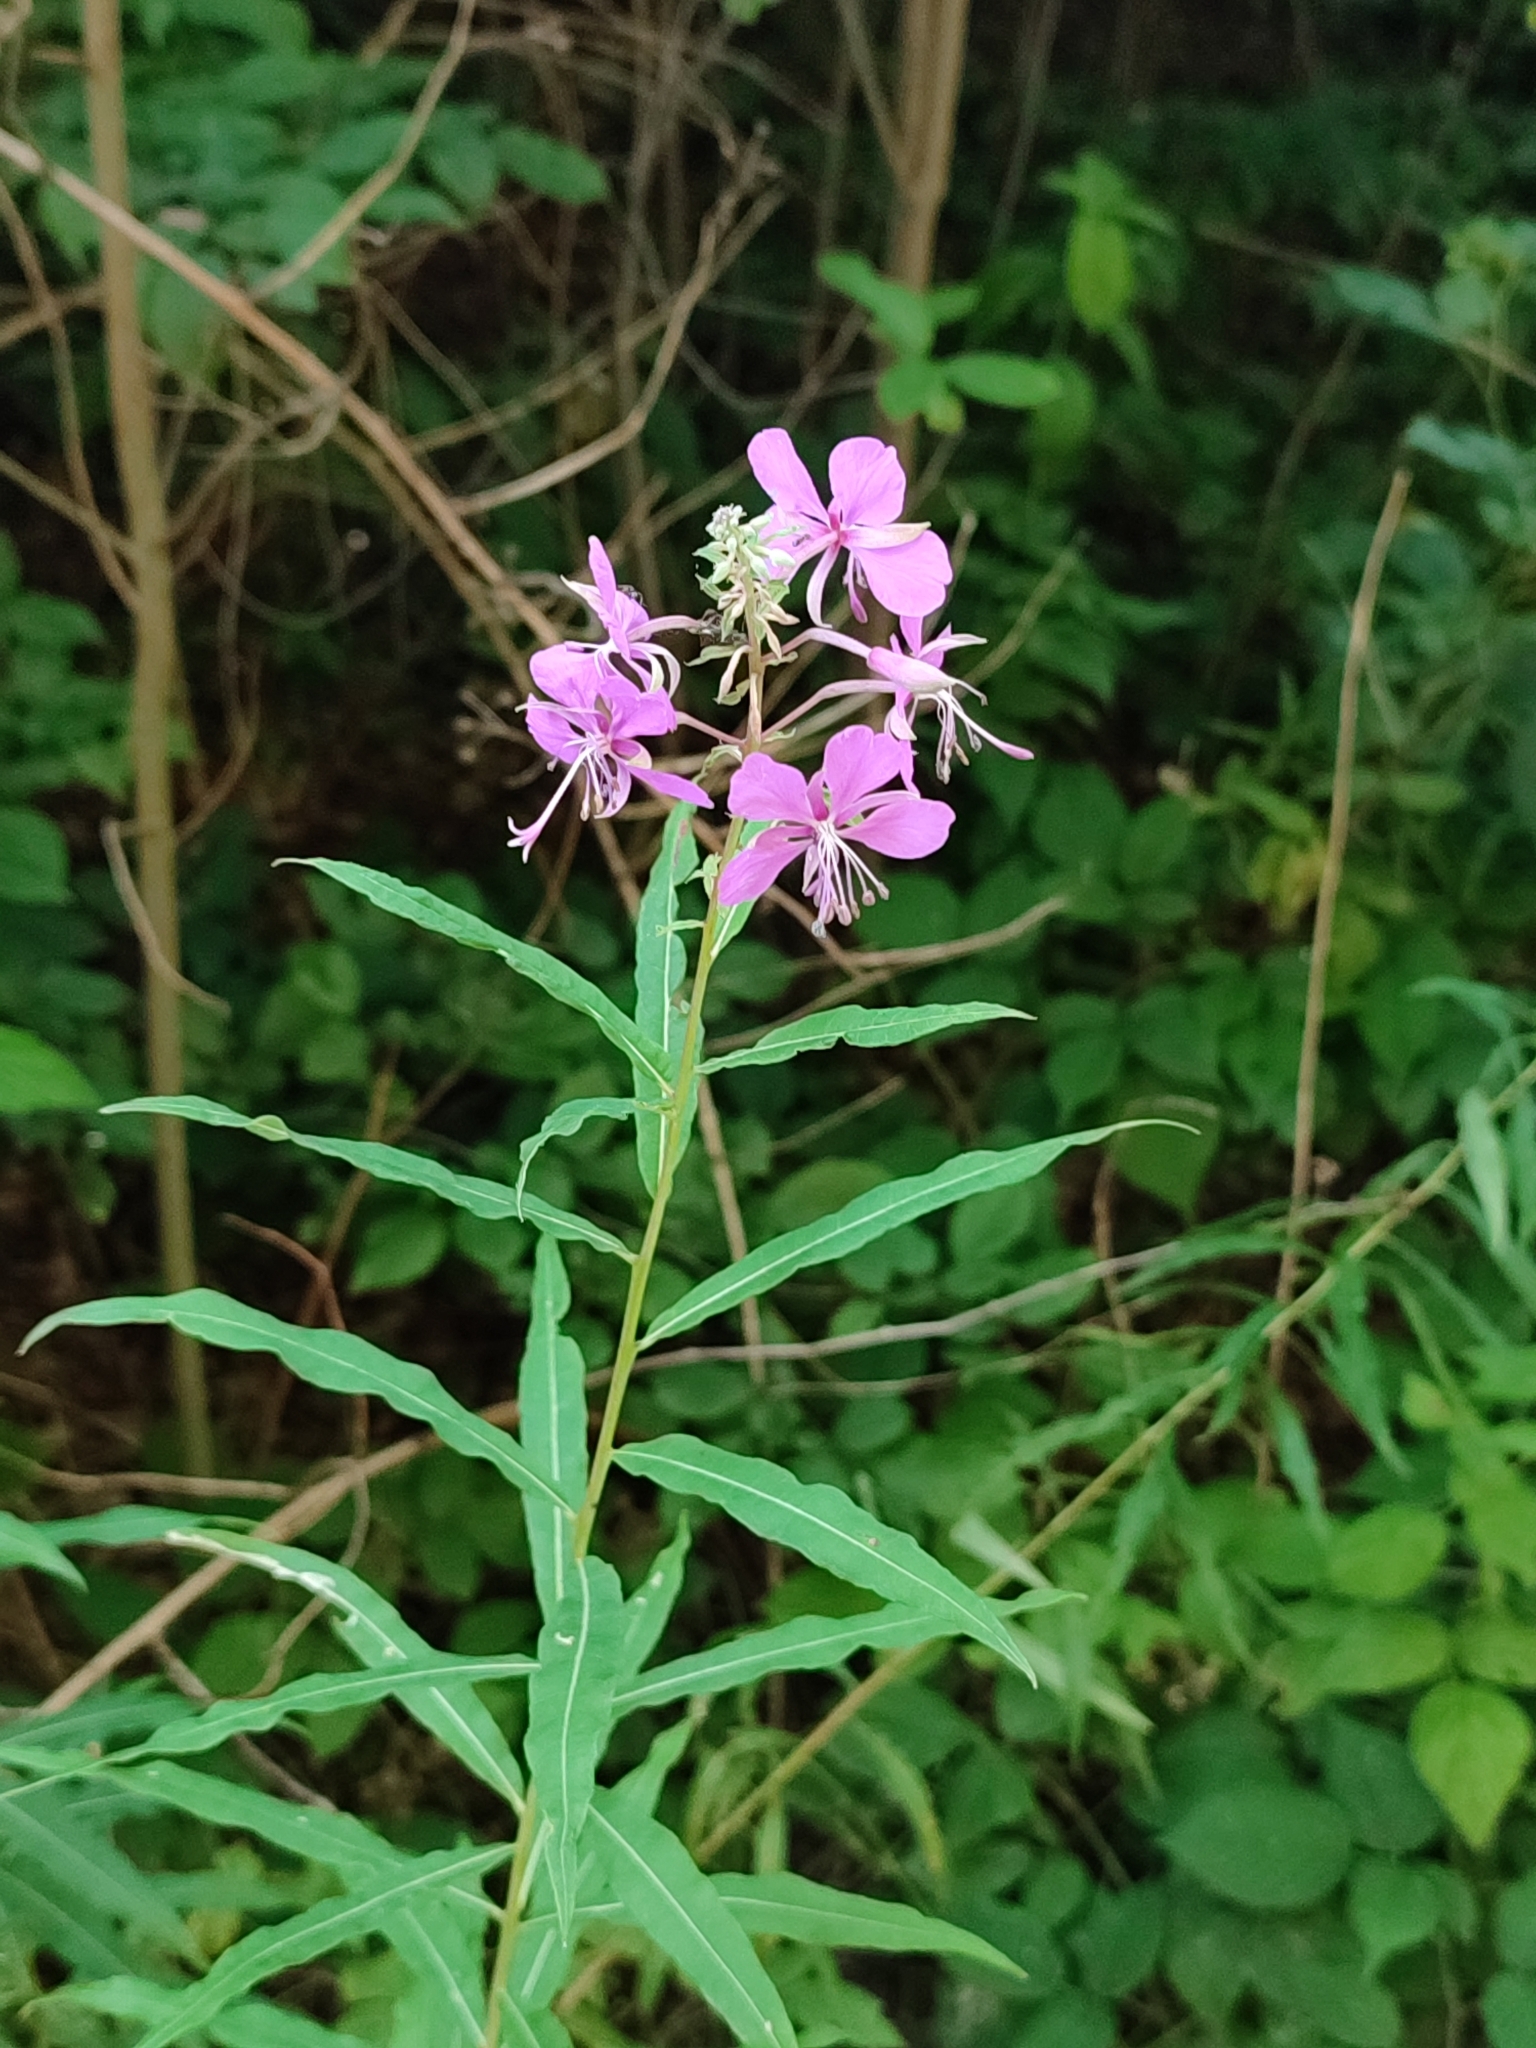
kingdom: Plantae
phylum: Tracheophyta
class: Magnoliopsida
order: Myrtales
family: Onagraceae
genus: Chamaenerion
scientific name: Chamaenerion angustifolium
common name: Fireweed
